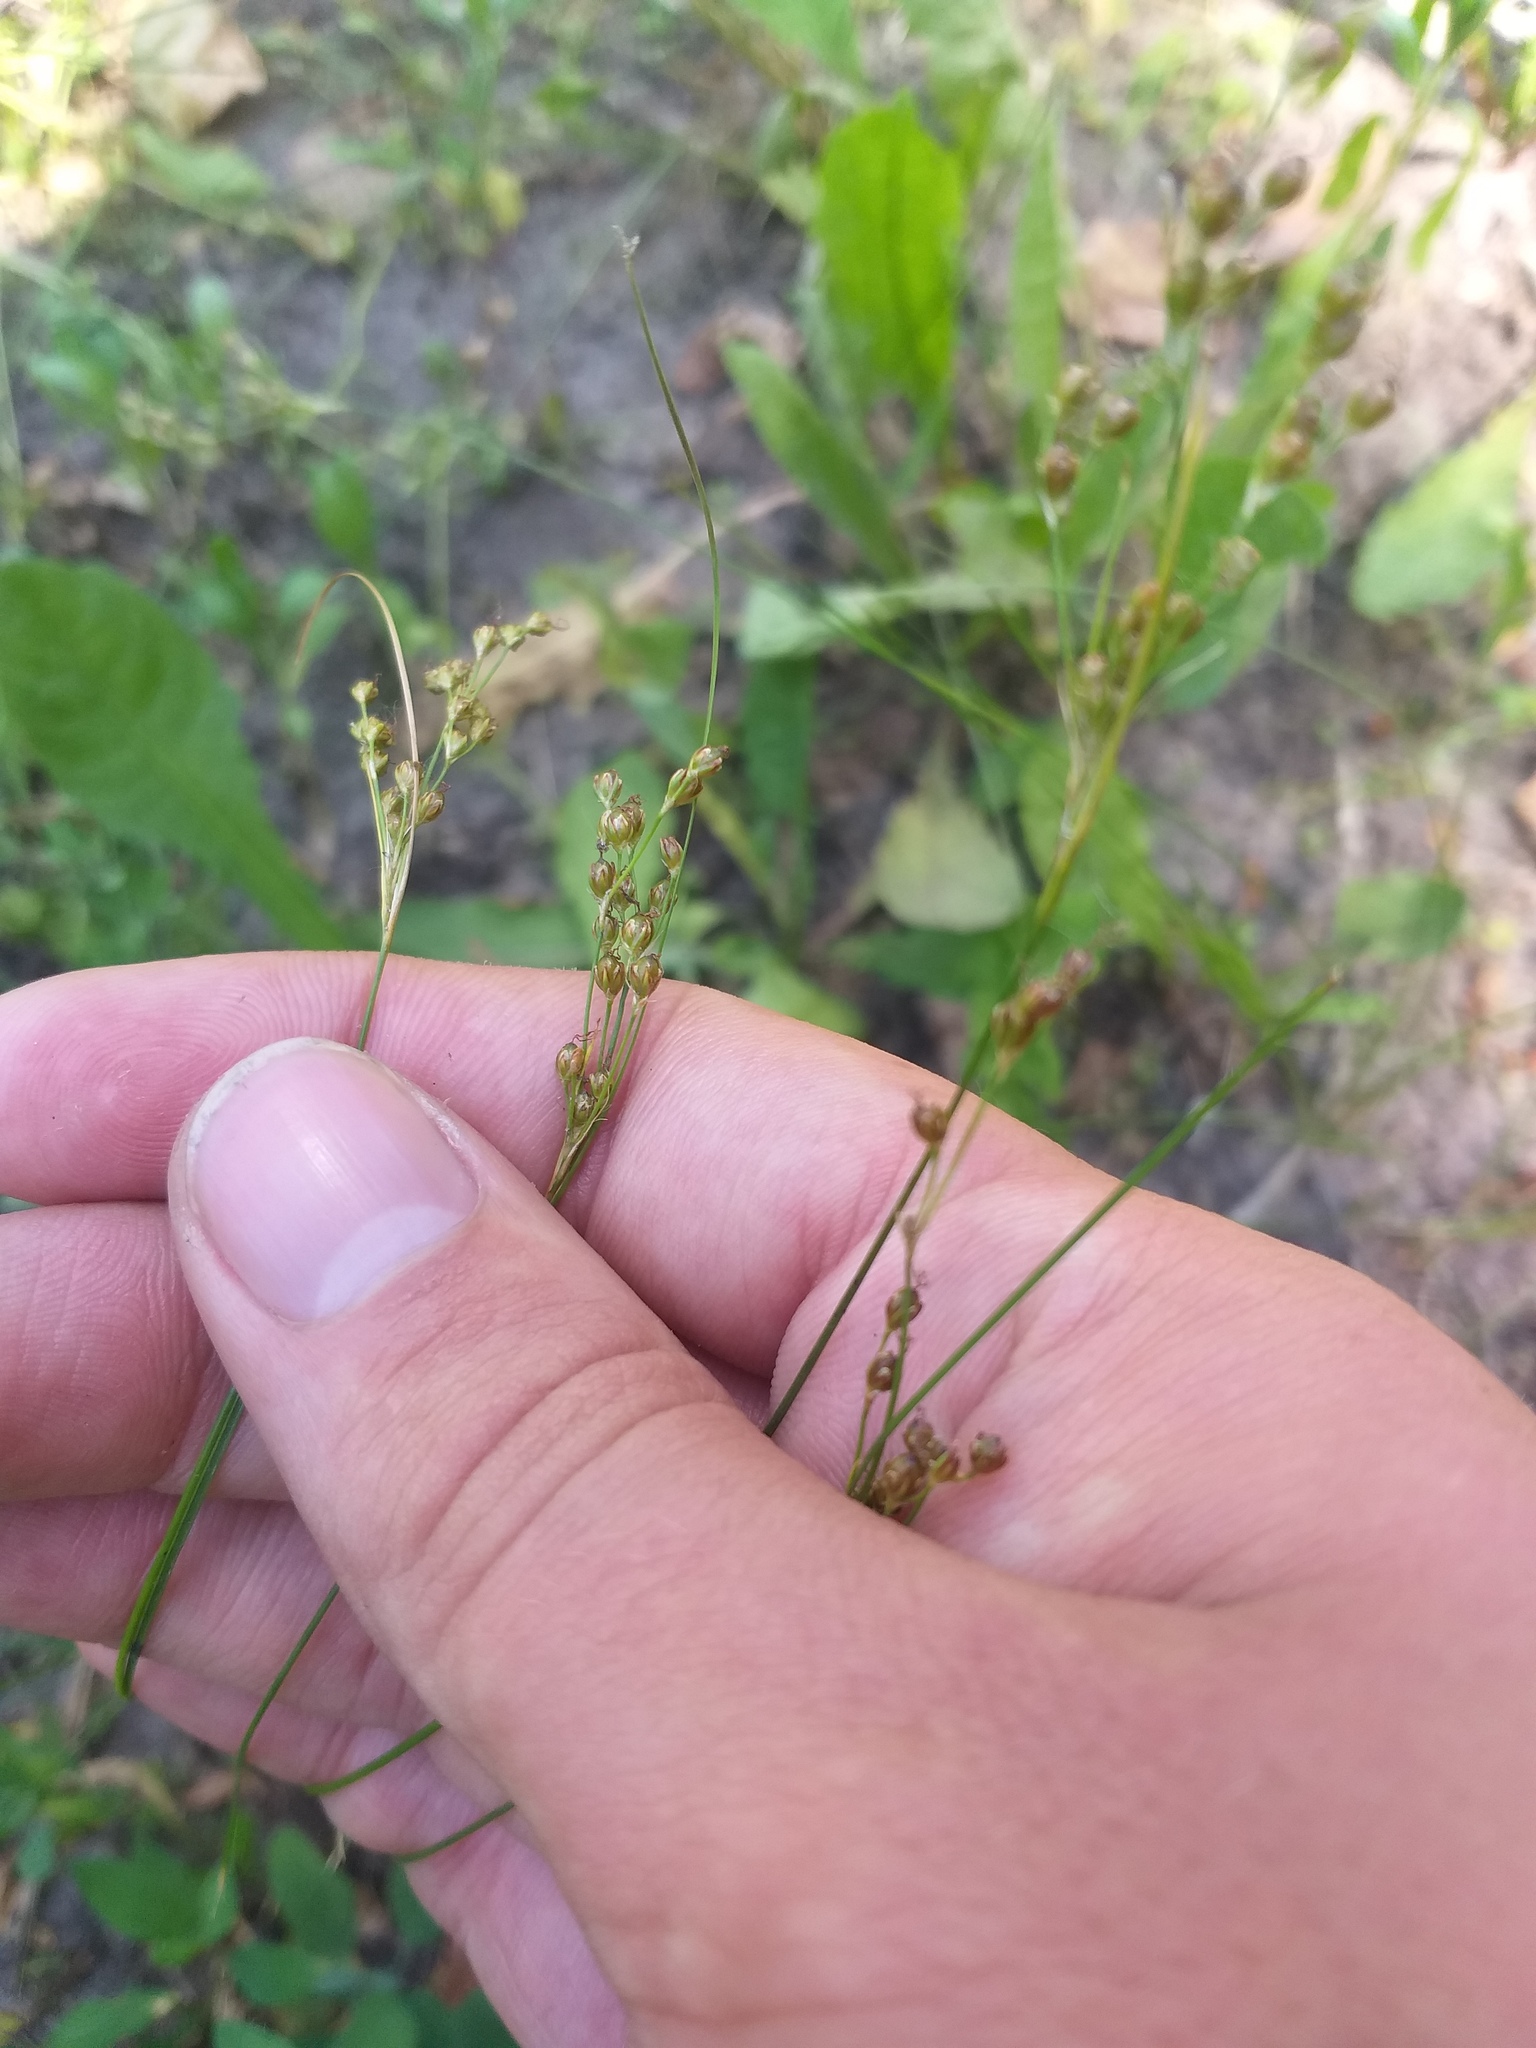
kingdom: Plantae
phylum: Tracheophyta
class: Liliopsida
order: Poales
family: Juncaceae
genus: Juncus
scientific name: Juncus compressus
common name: Round-fruited rush
